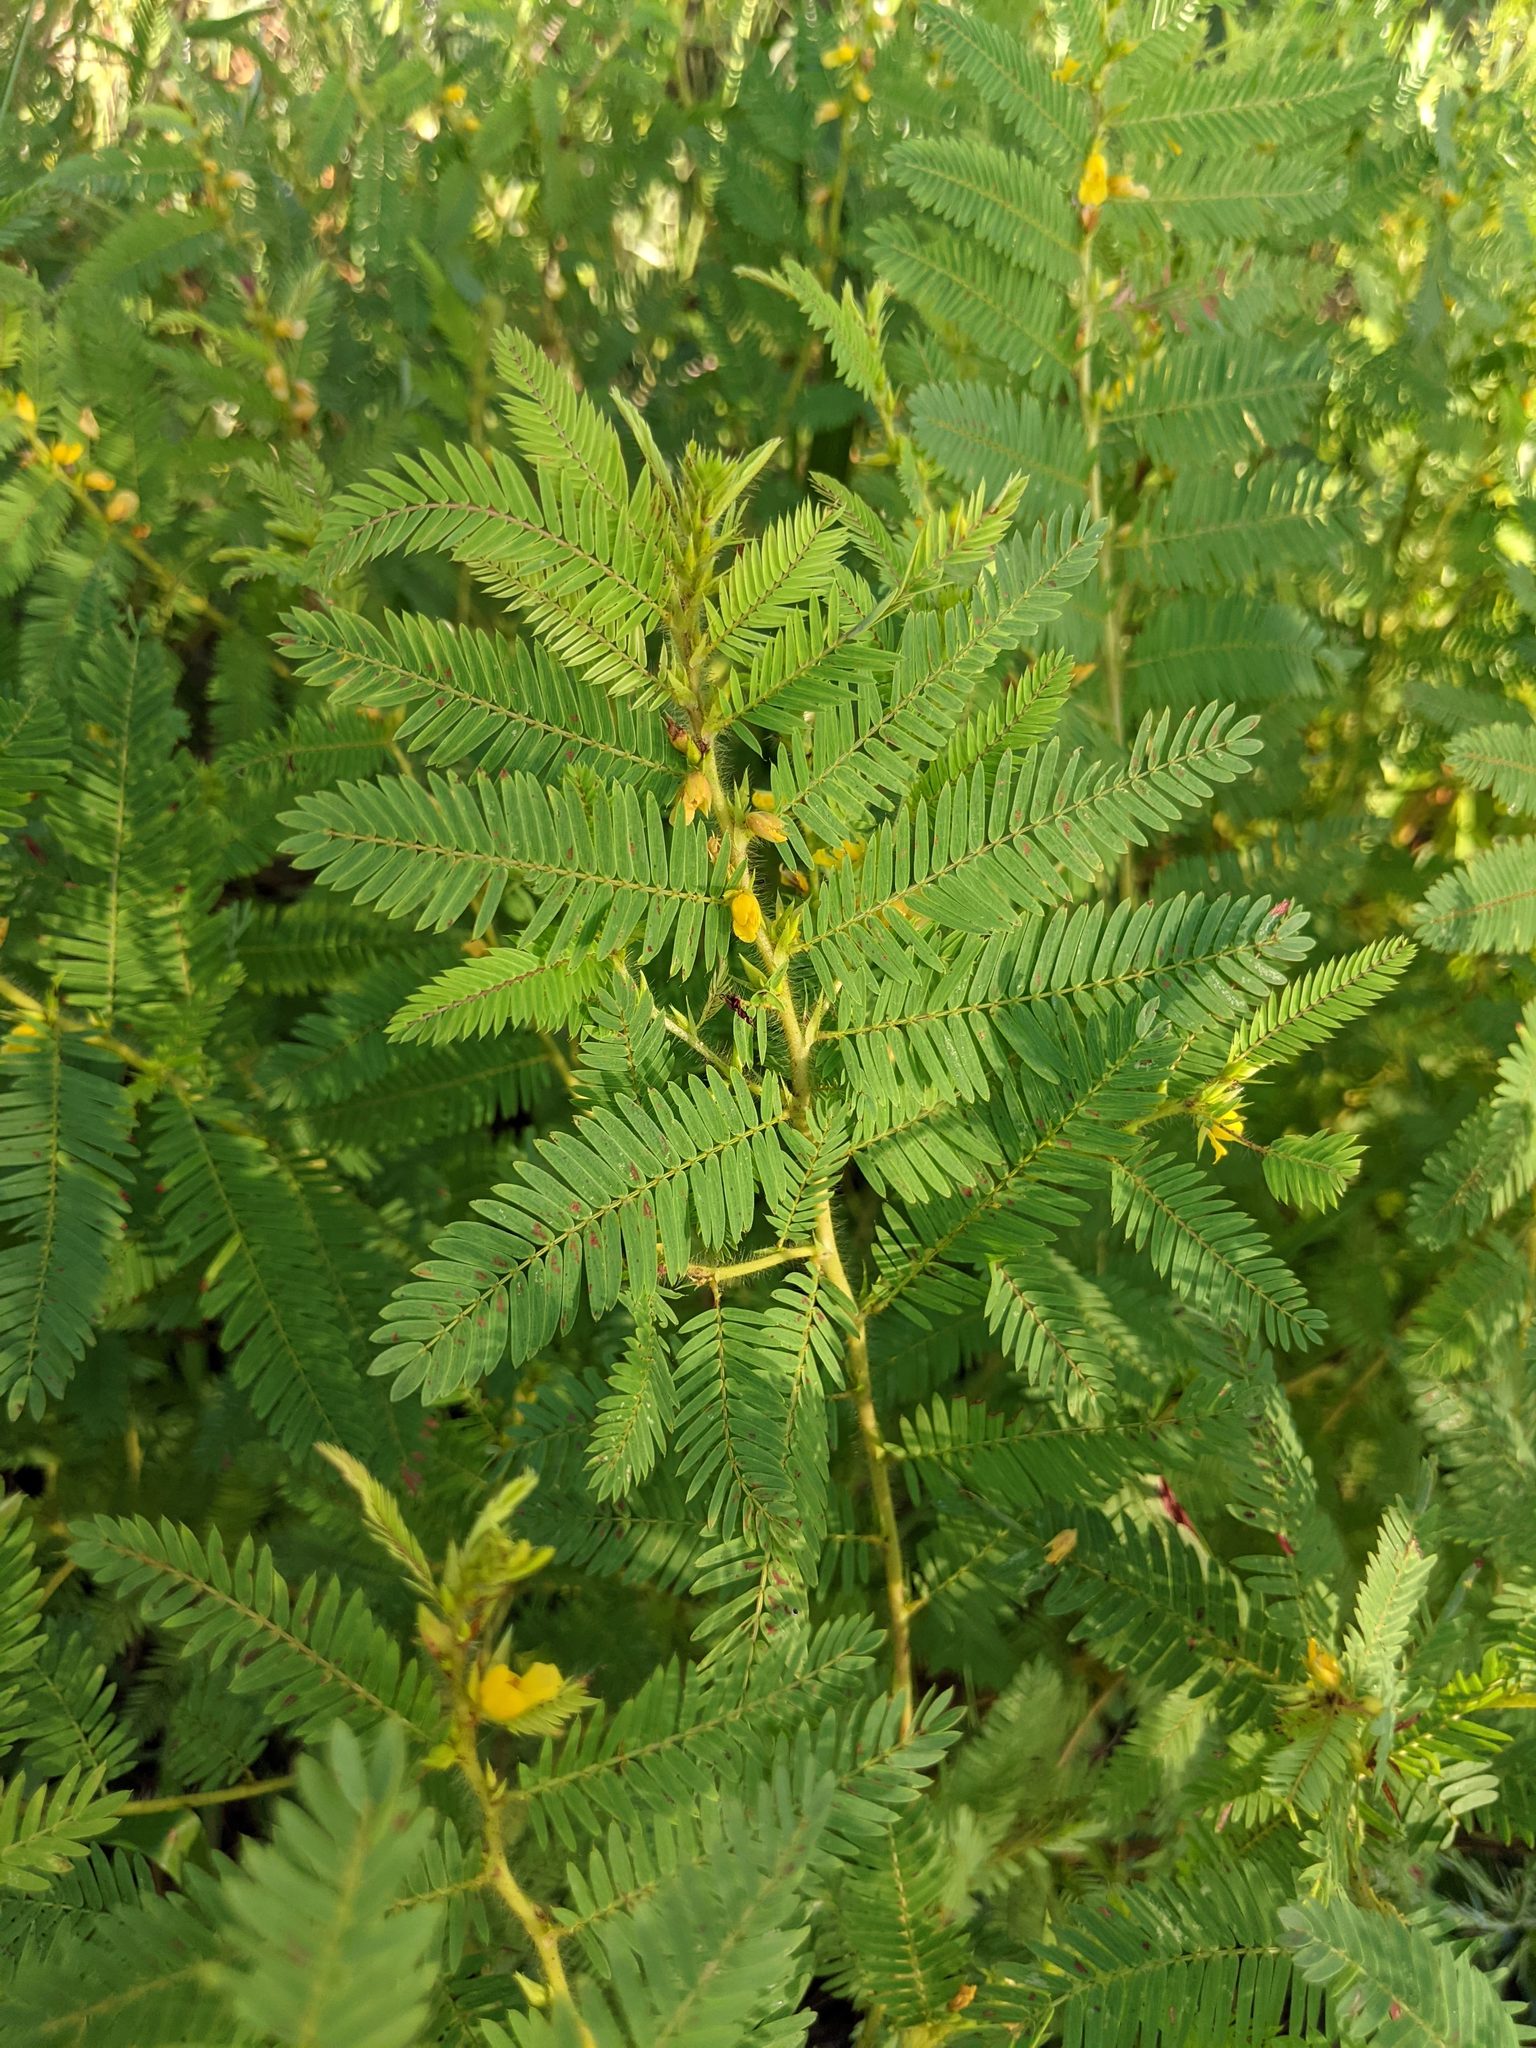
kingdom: Plantae
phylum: Tracheophyta
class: Magnoliopsida
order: Fabales
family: Fabaceae
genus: Chamaecrista
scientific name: Chamaecrista nictitans
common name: Sensitive cassia
